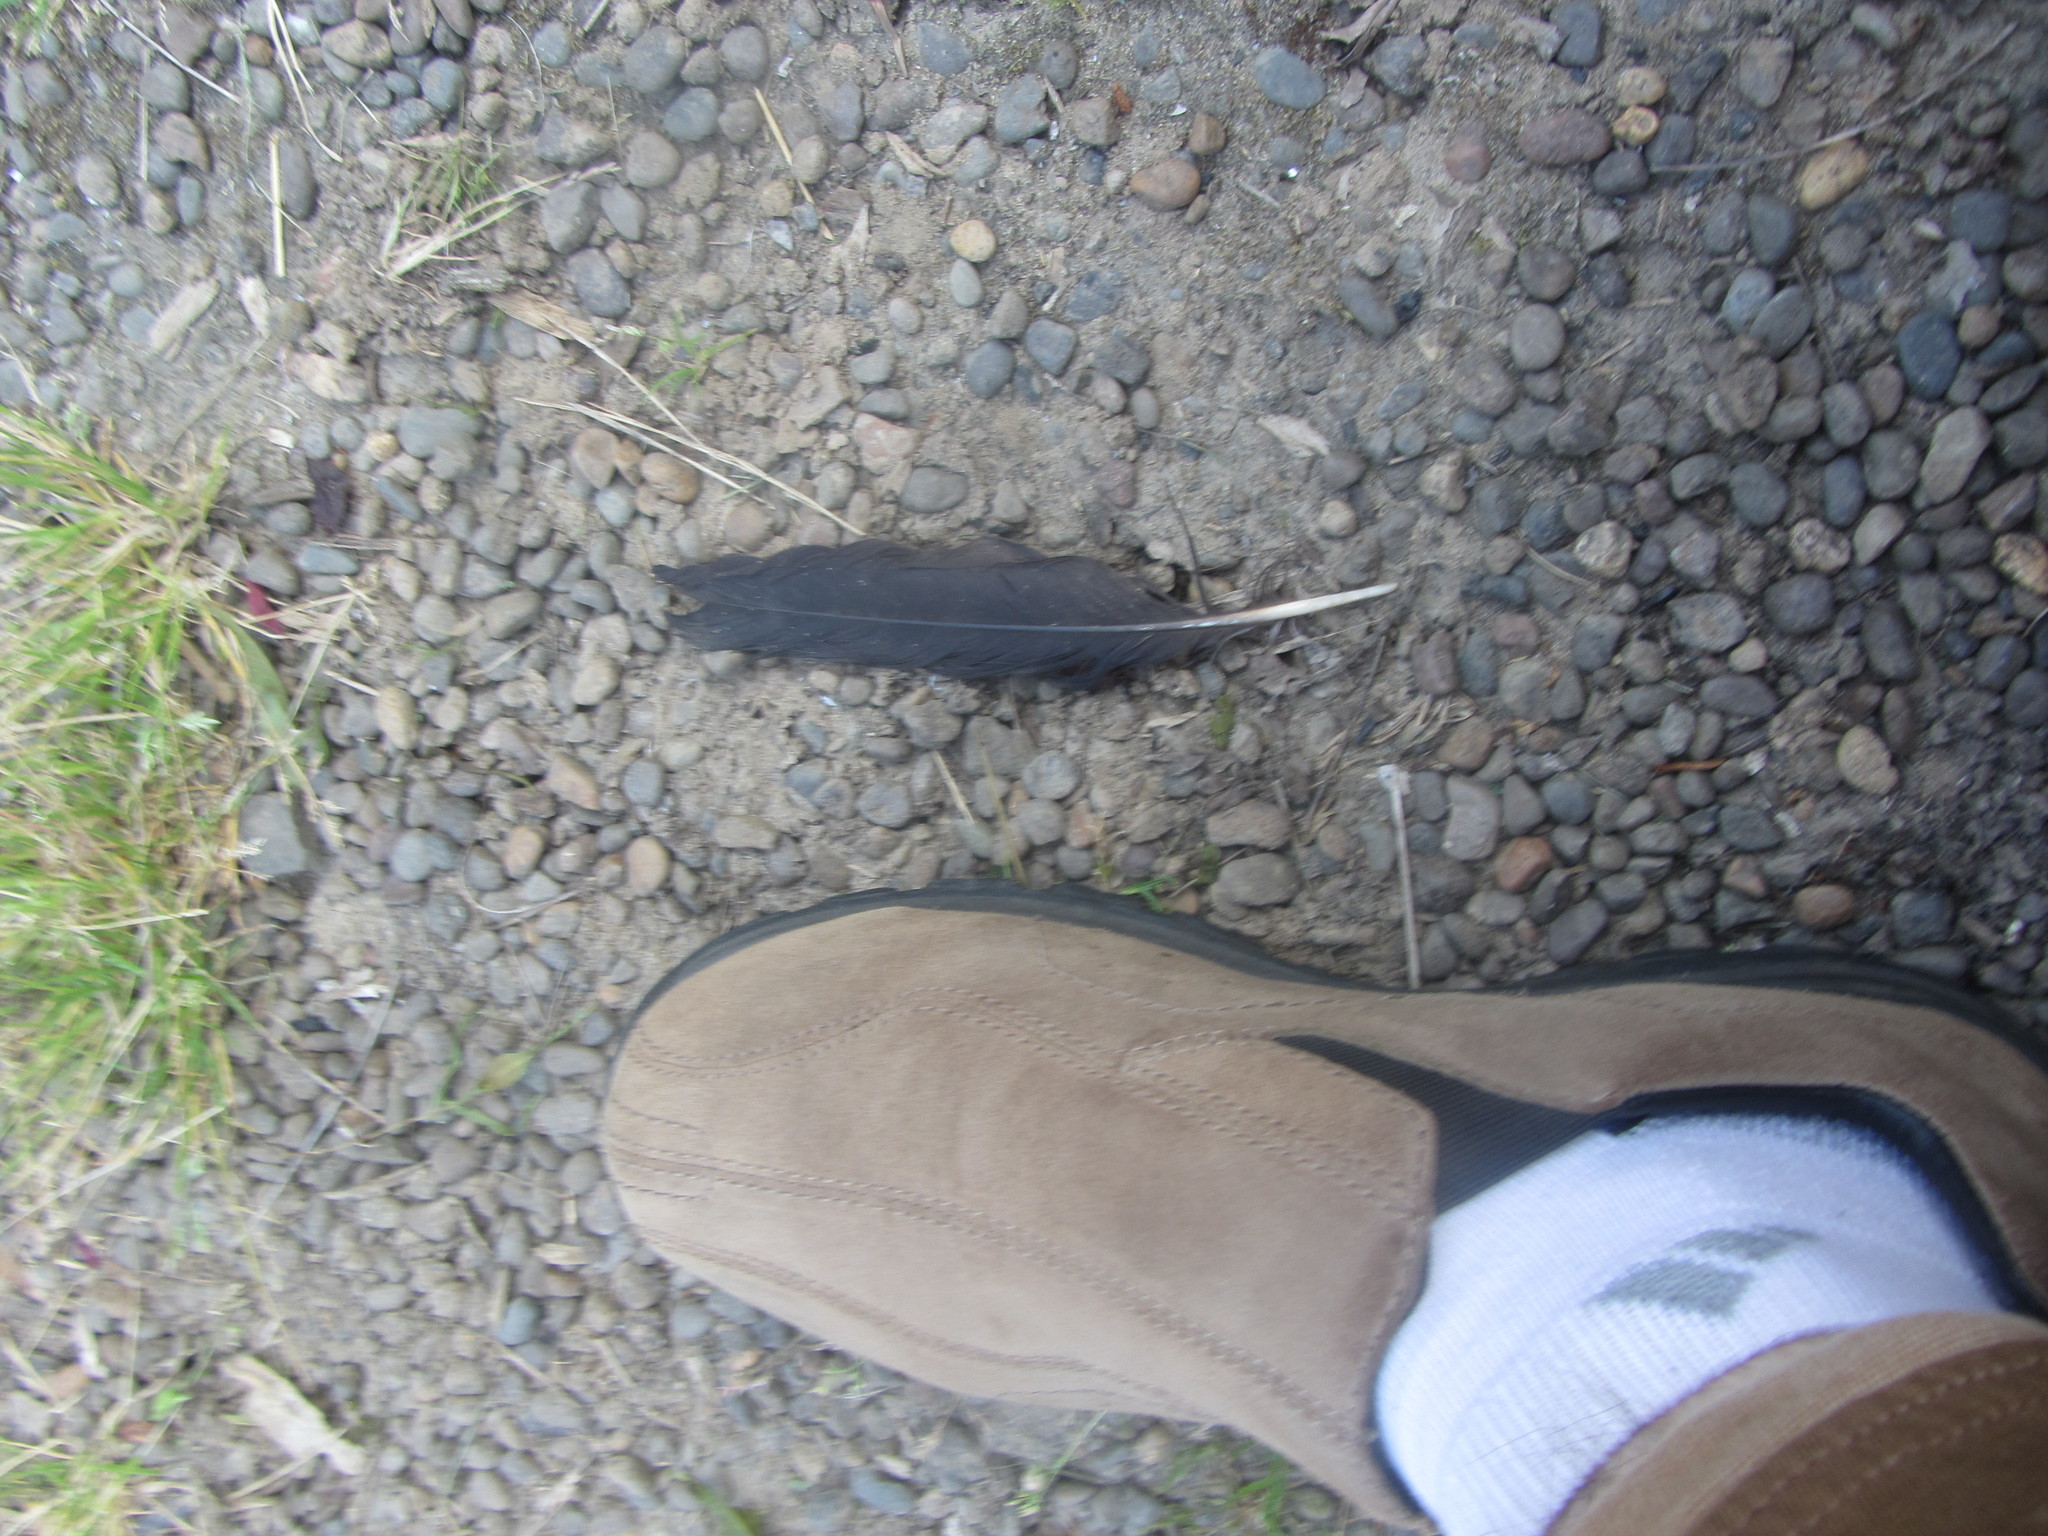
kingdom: Animalia
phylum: Chordata
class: Aves
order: Passeriformes
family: Corvidae
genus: Corvus
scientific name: Corvus brachyrhynchos
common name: American crow
